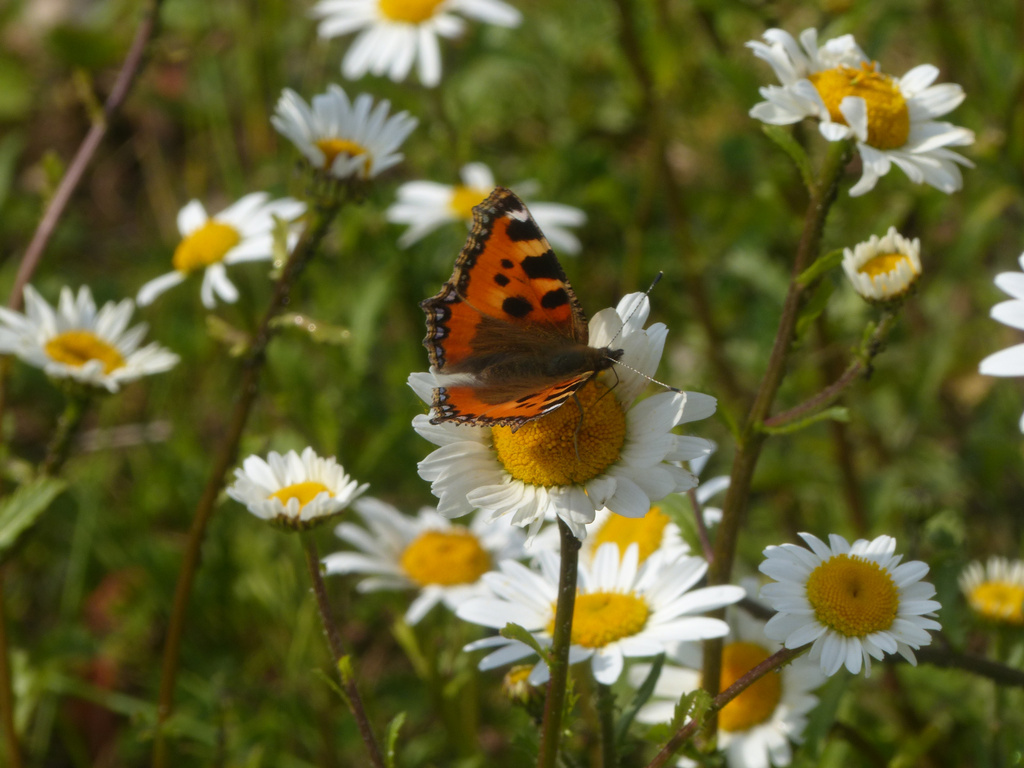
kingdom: Animalia
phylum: Arthropoda
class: Insecta
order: Lepidoptera
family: Nymphalidae
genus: Aglais
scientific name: Aglais urticae
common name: Small tortoiseshell
